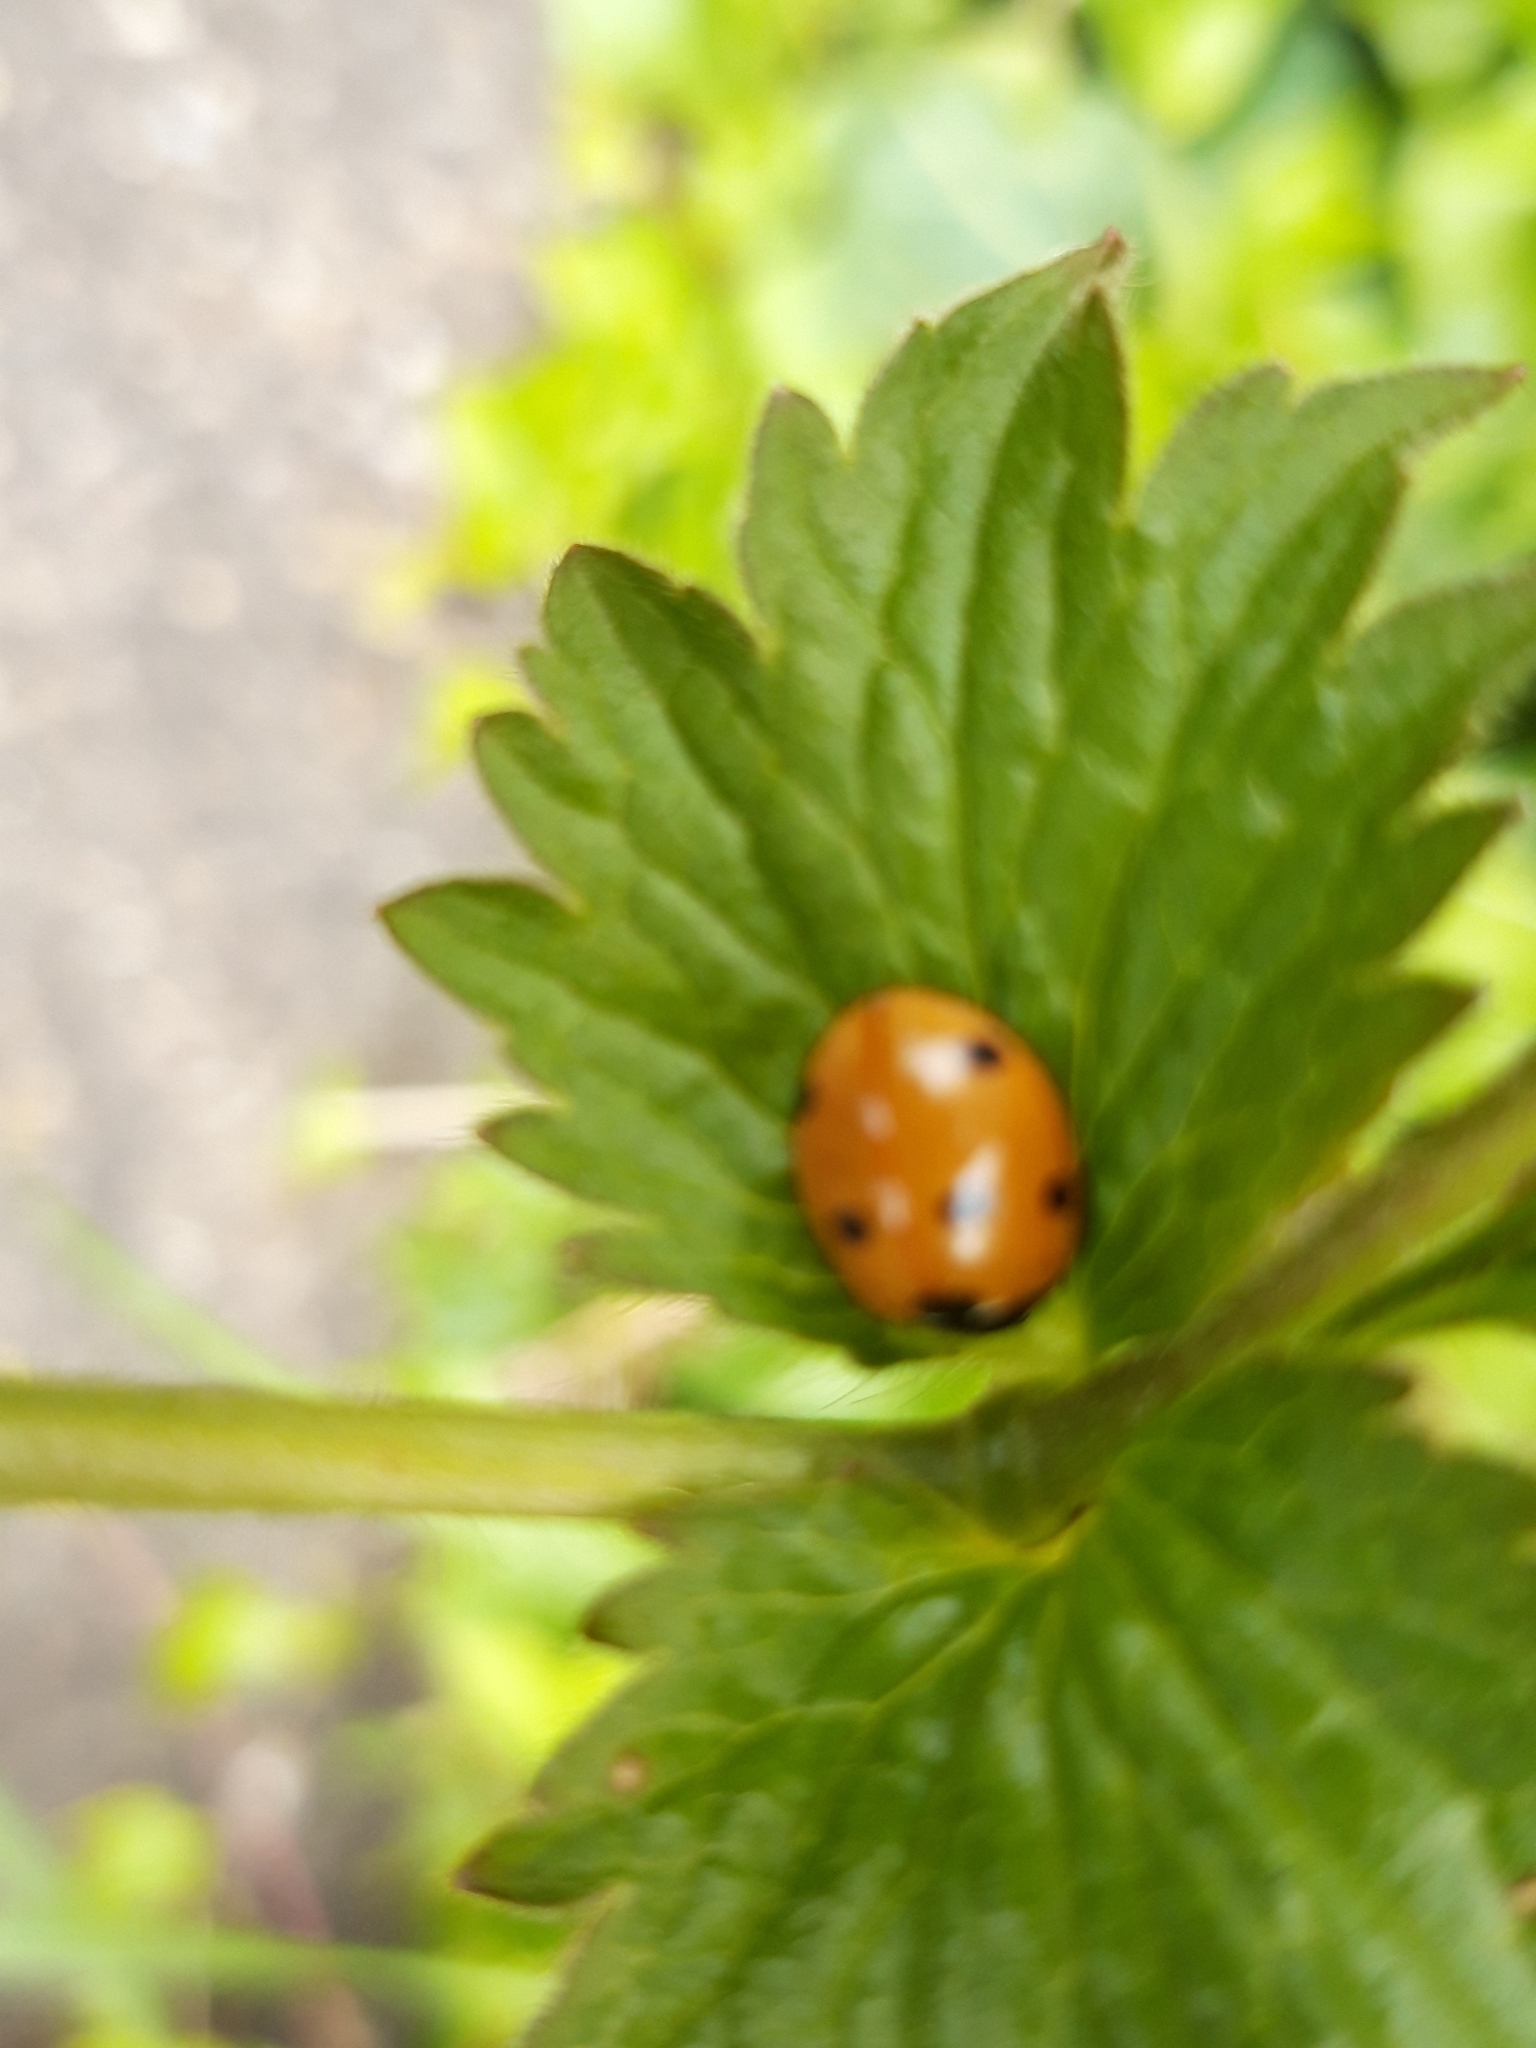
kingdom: Animalia
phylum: Arthropoda
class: Insecta
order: Coleoptera
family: Coccinellidae
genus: Coccinella
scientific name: Coccinella septempunctata
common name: Sevenspotted lady beetle
